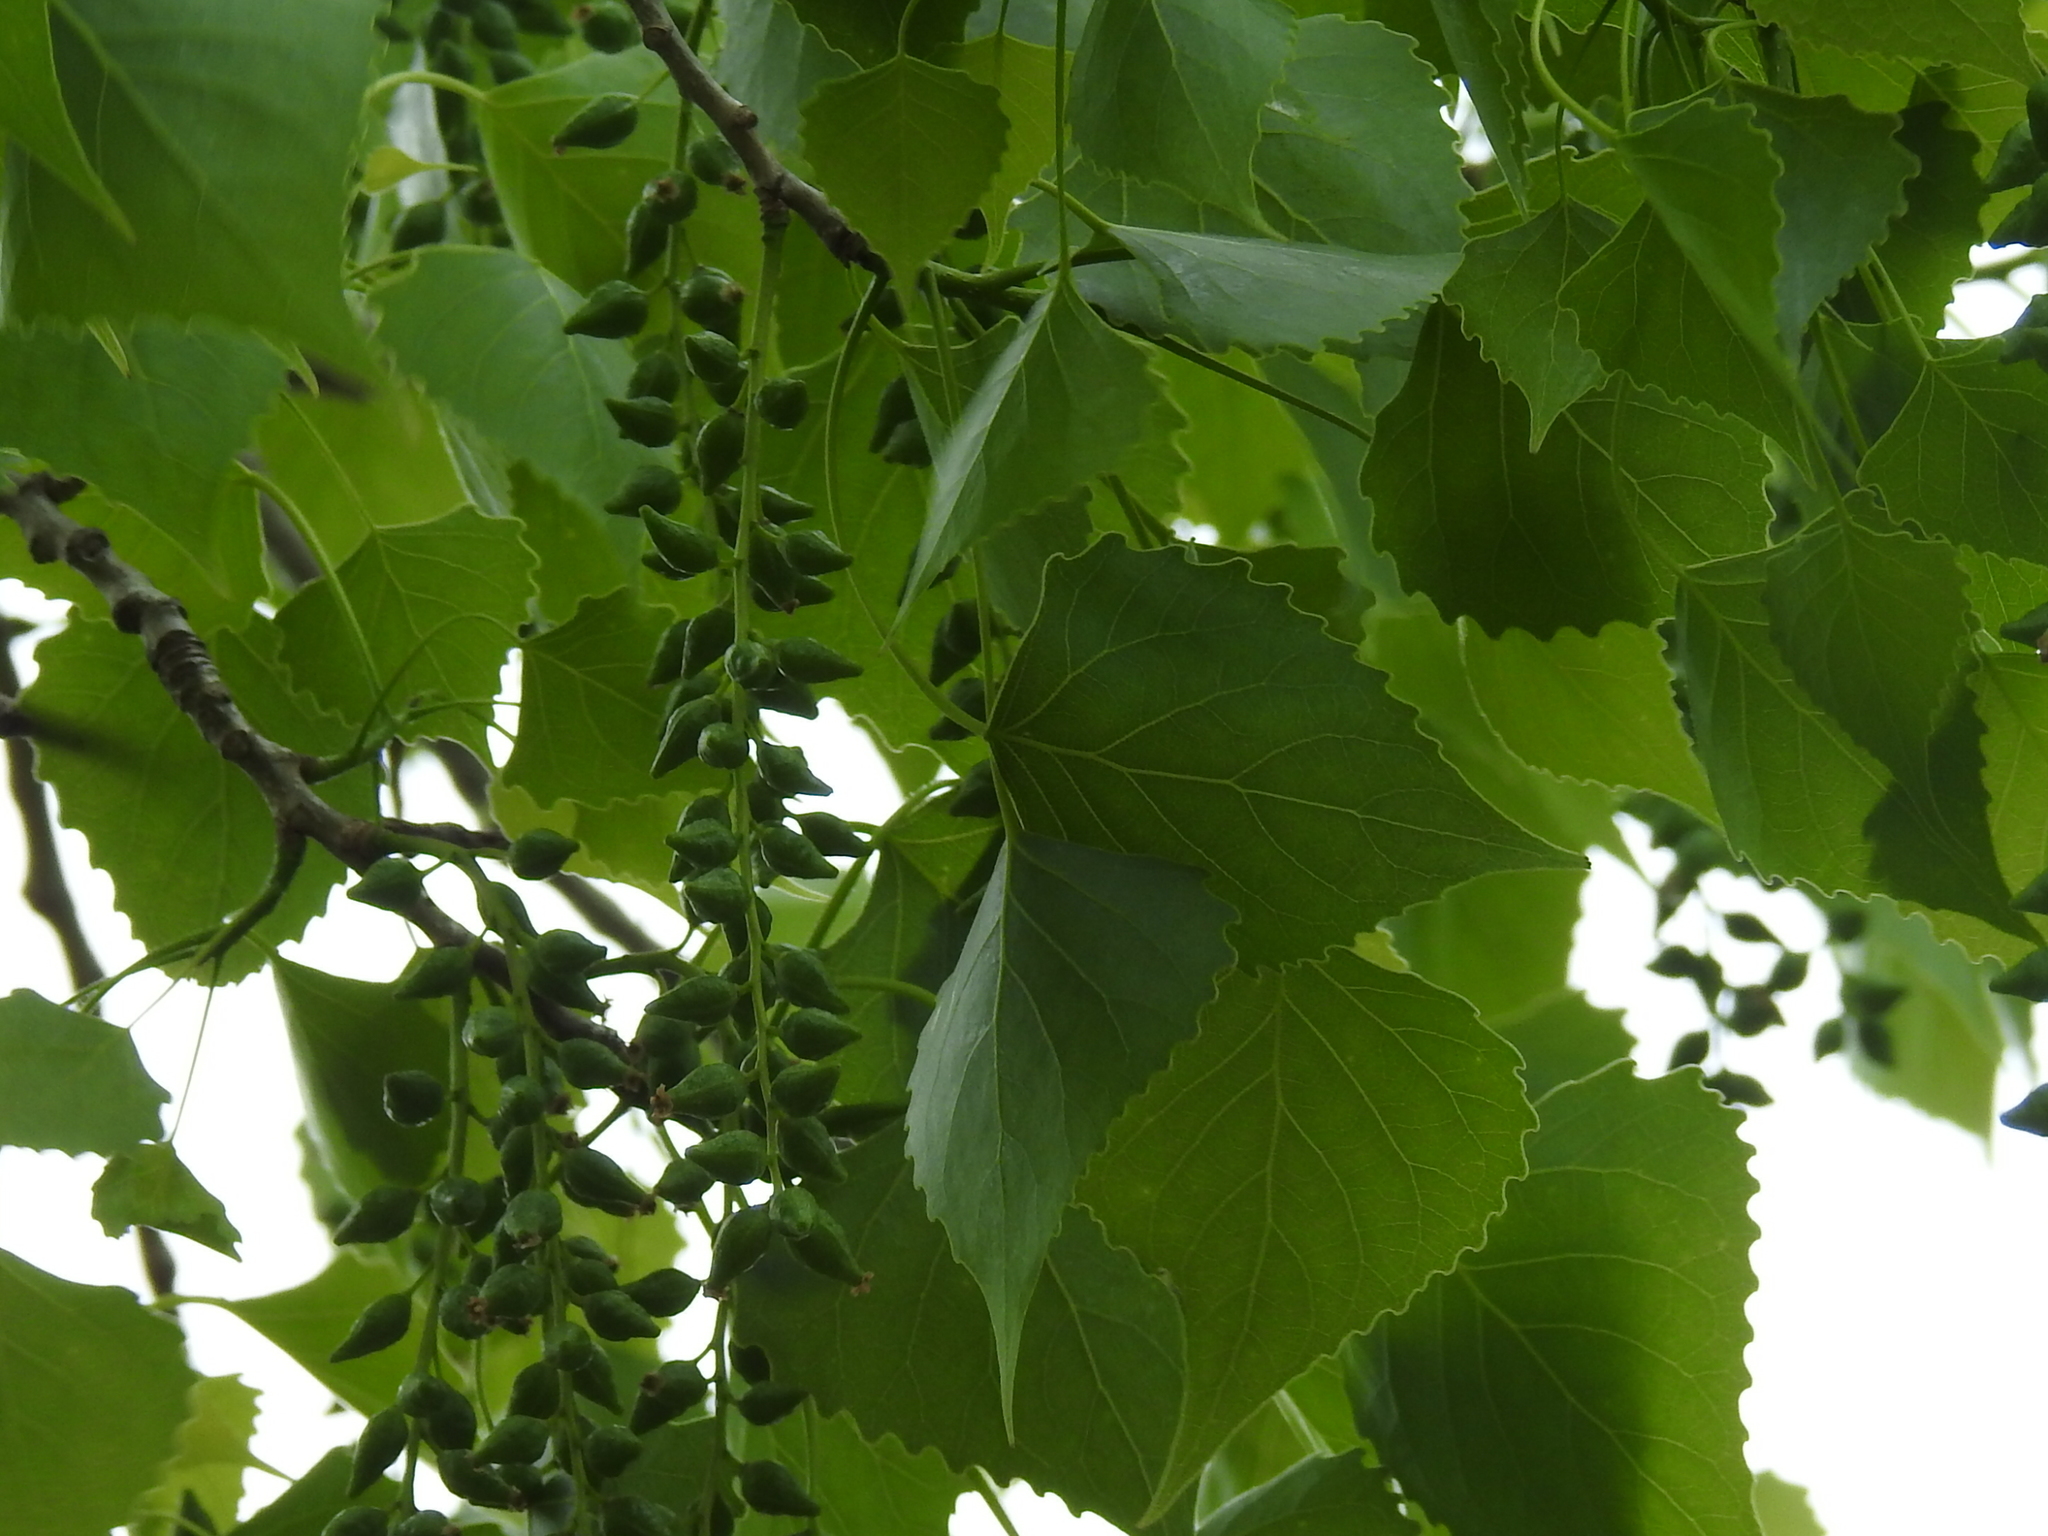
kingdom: Plantae
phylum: Tracheophyta
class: Magnoliopsida
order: Malpighiales
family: Salicaceae
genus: Populus
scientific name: Populus deltoides
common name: Eastern cottonwood
